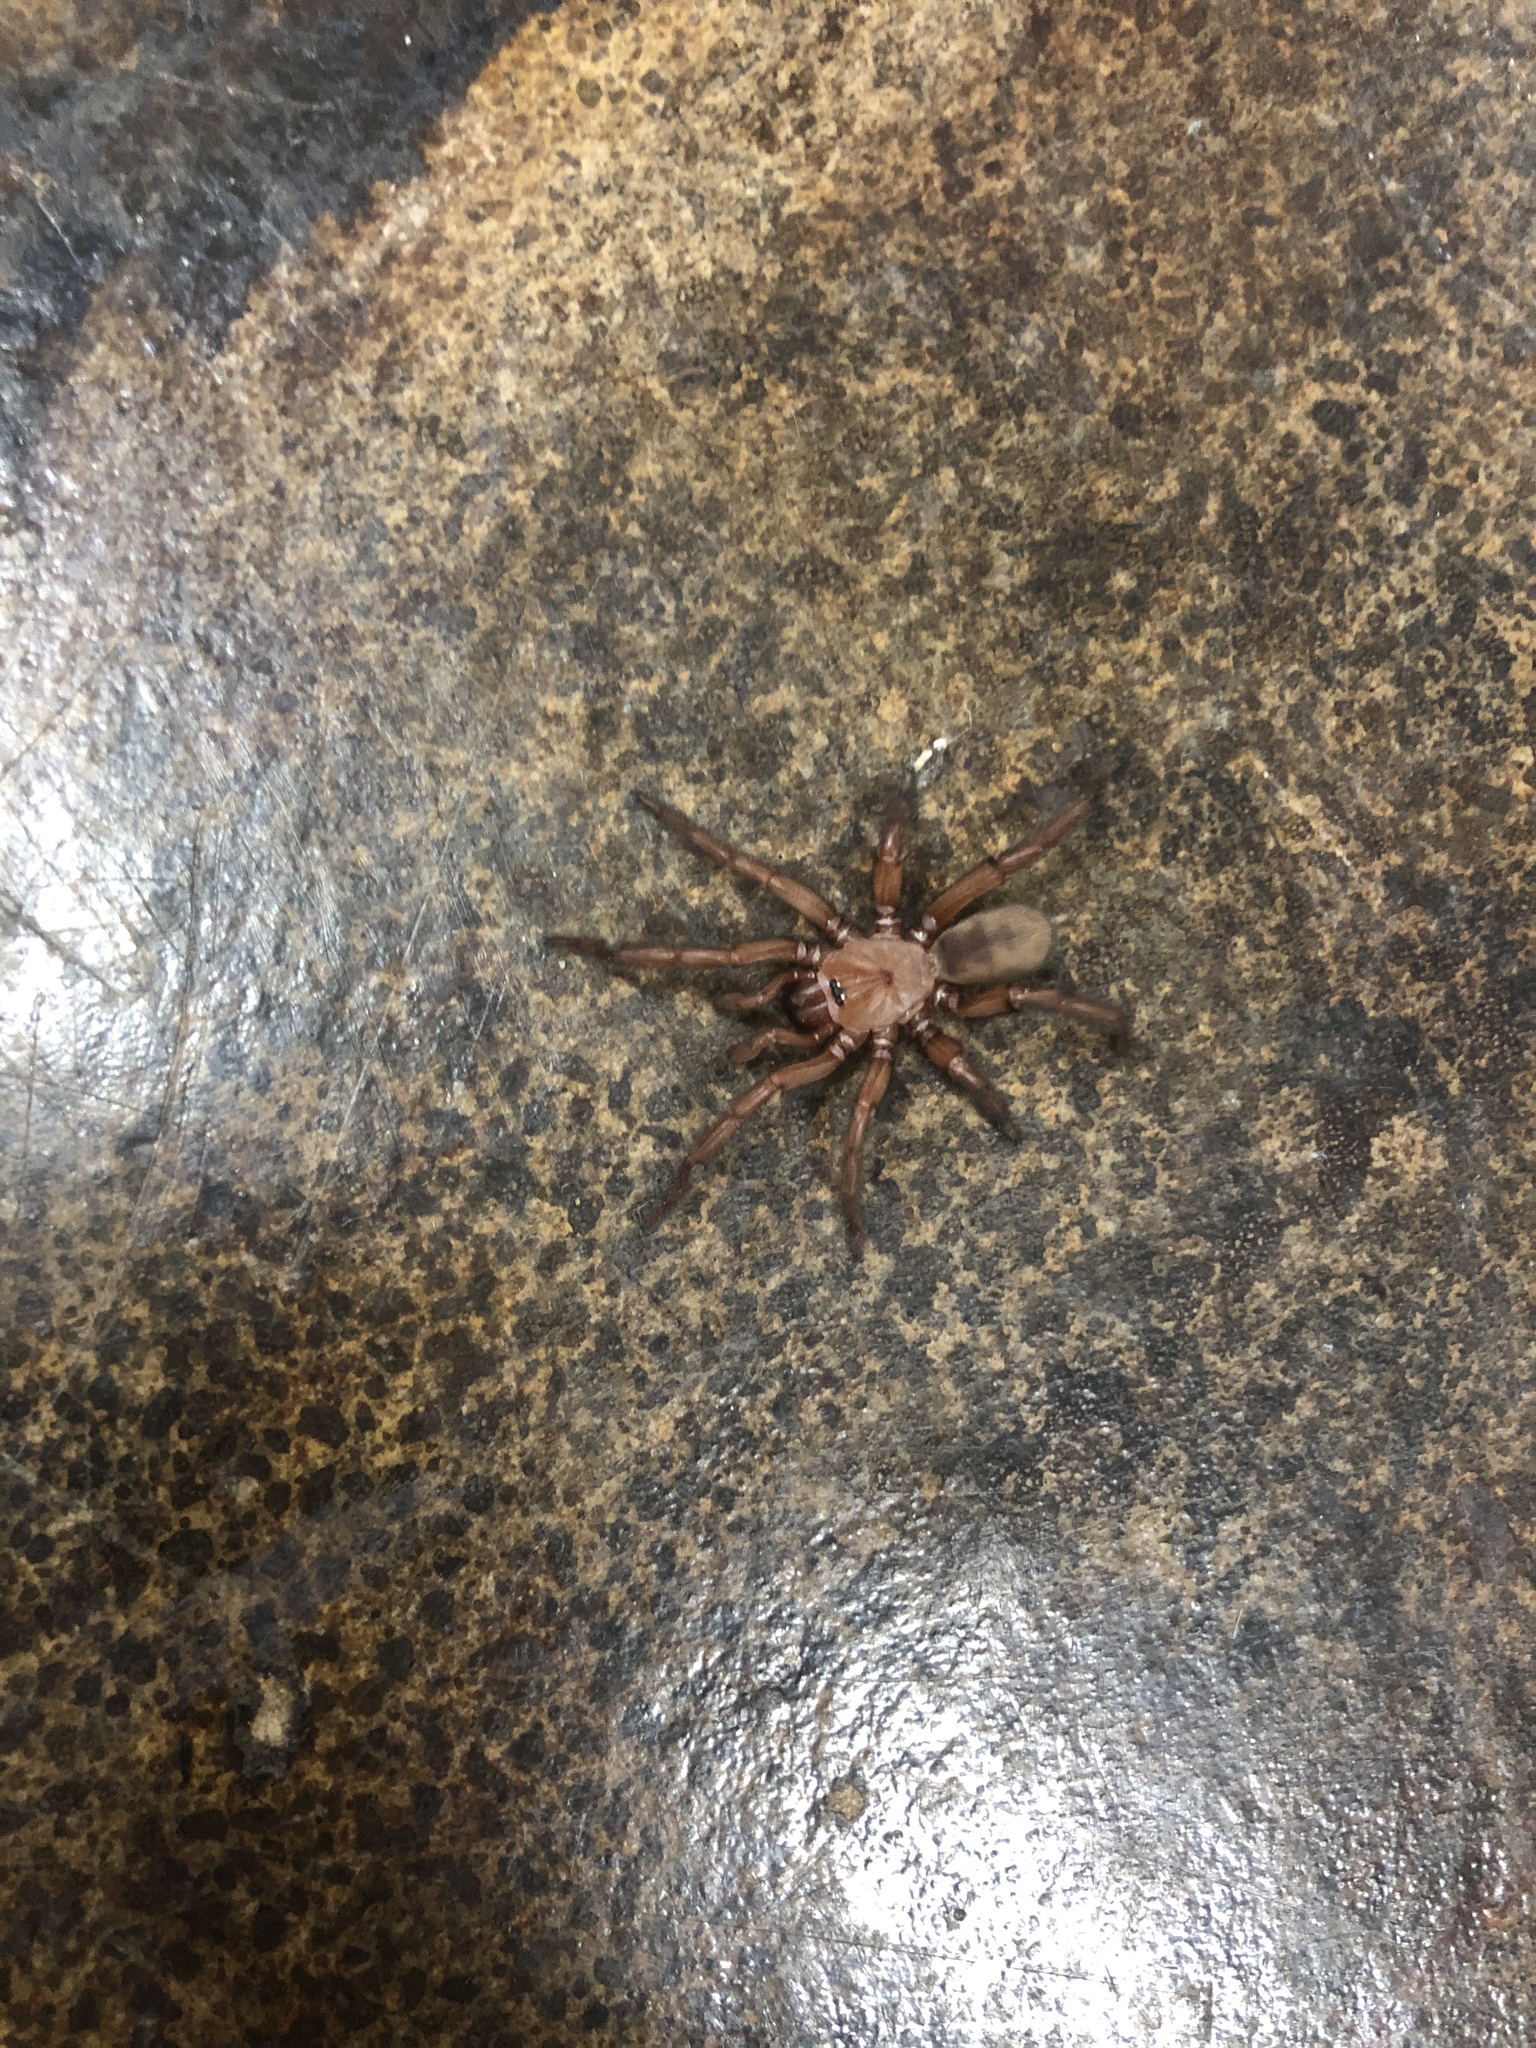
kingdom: Animalia
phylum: Arthropoda
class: Arachnida
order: Araneae
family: Euctenizidae
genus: Myrmekiaphila
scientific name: Myrmekiaphila comstocki
